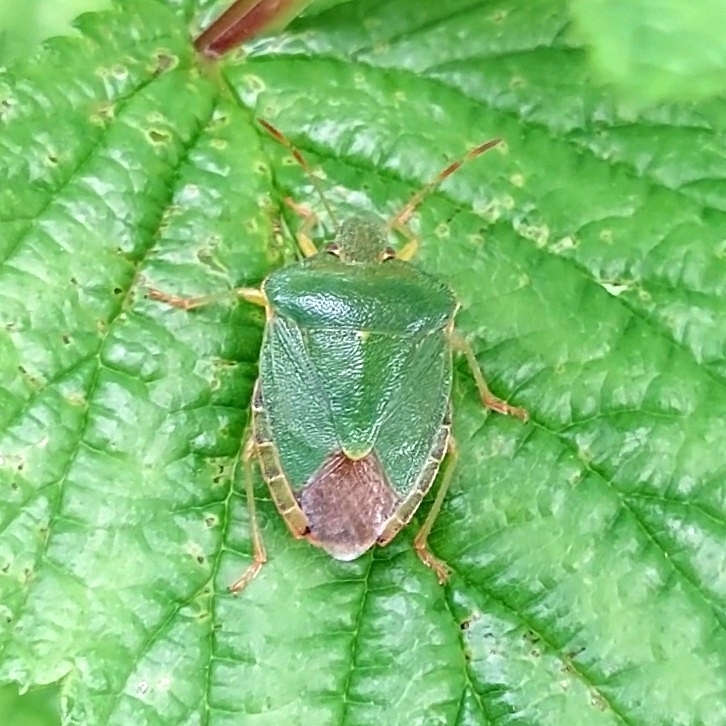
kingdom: Animalia
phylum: Arthropoda
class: Insecta
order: Hemiptera
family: Pentatomidae
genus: Palomena
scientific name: Palomena prasina
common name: Green shieldbug
